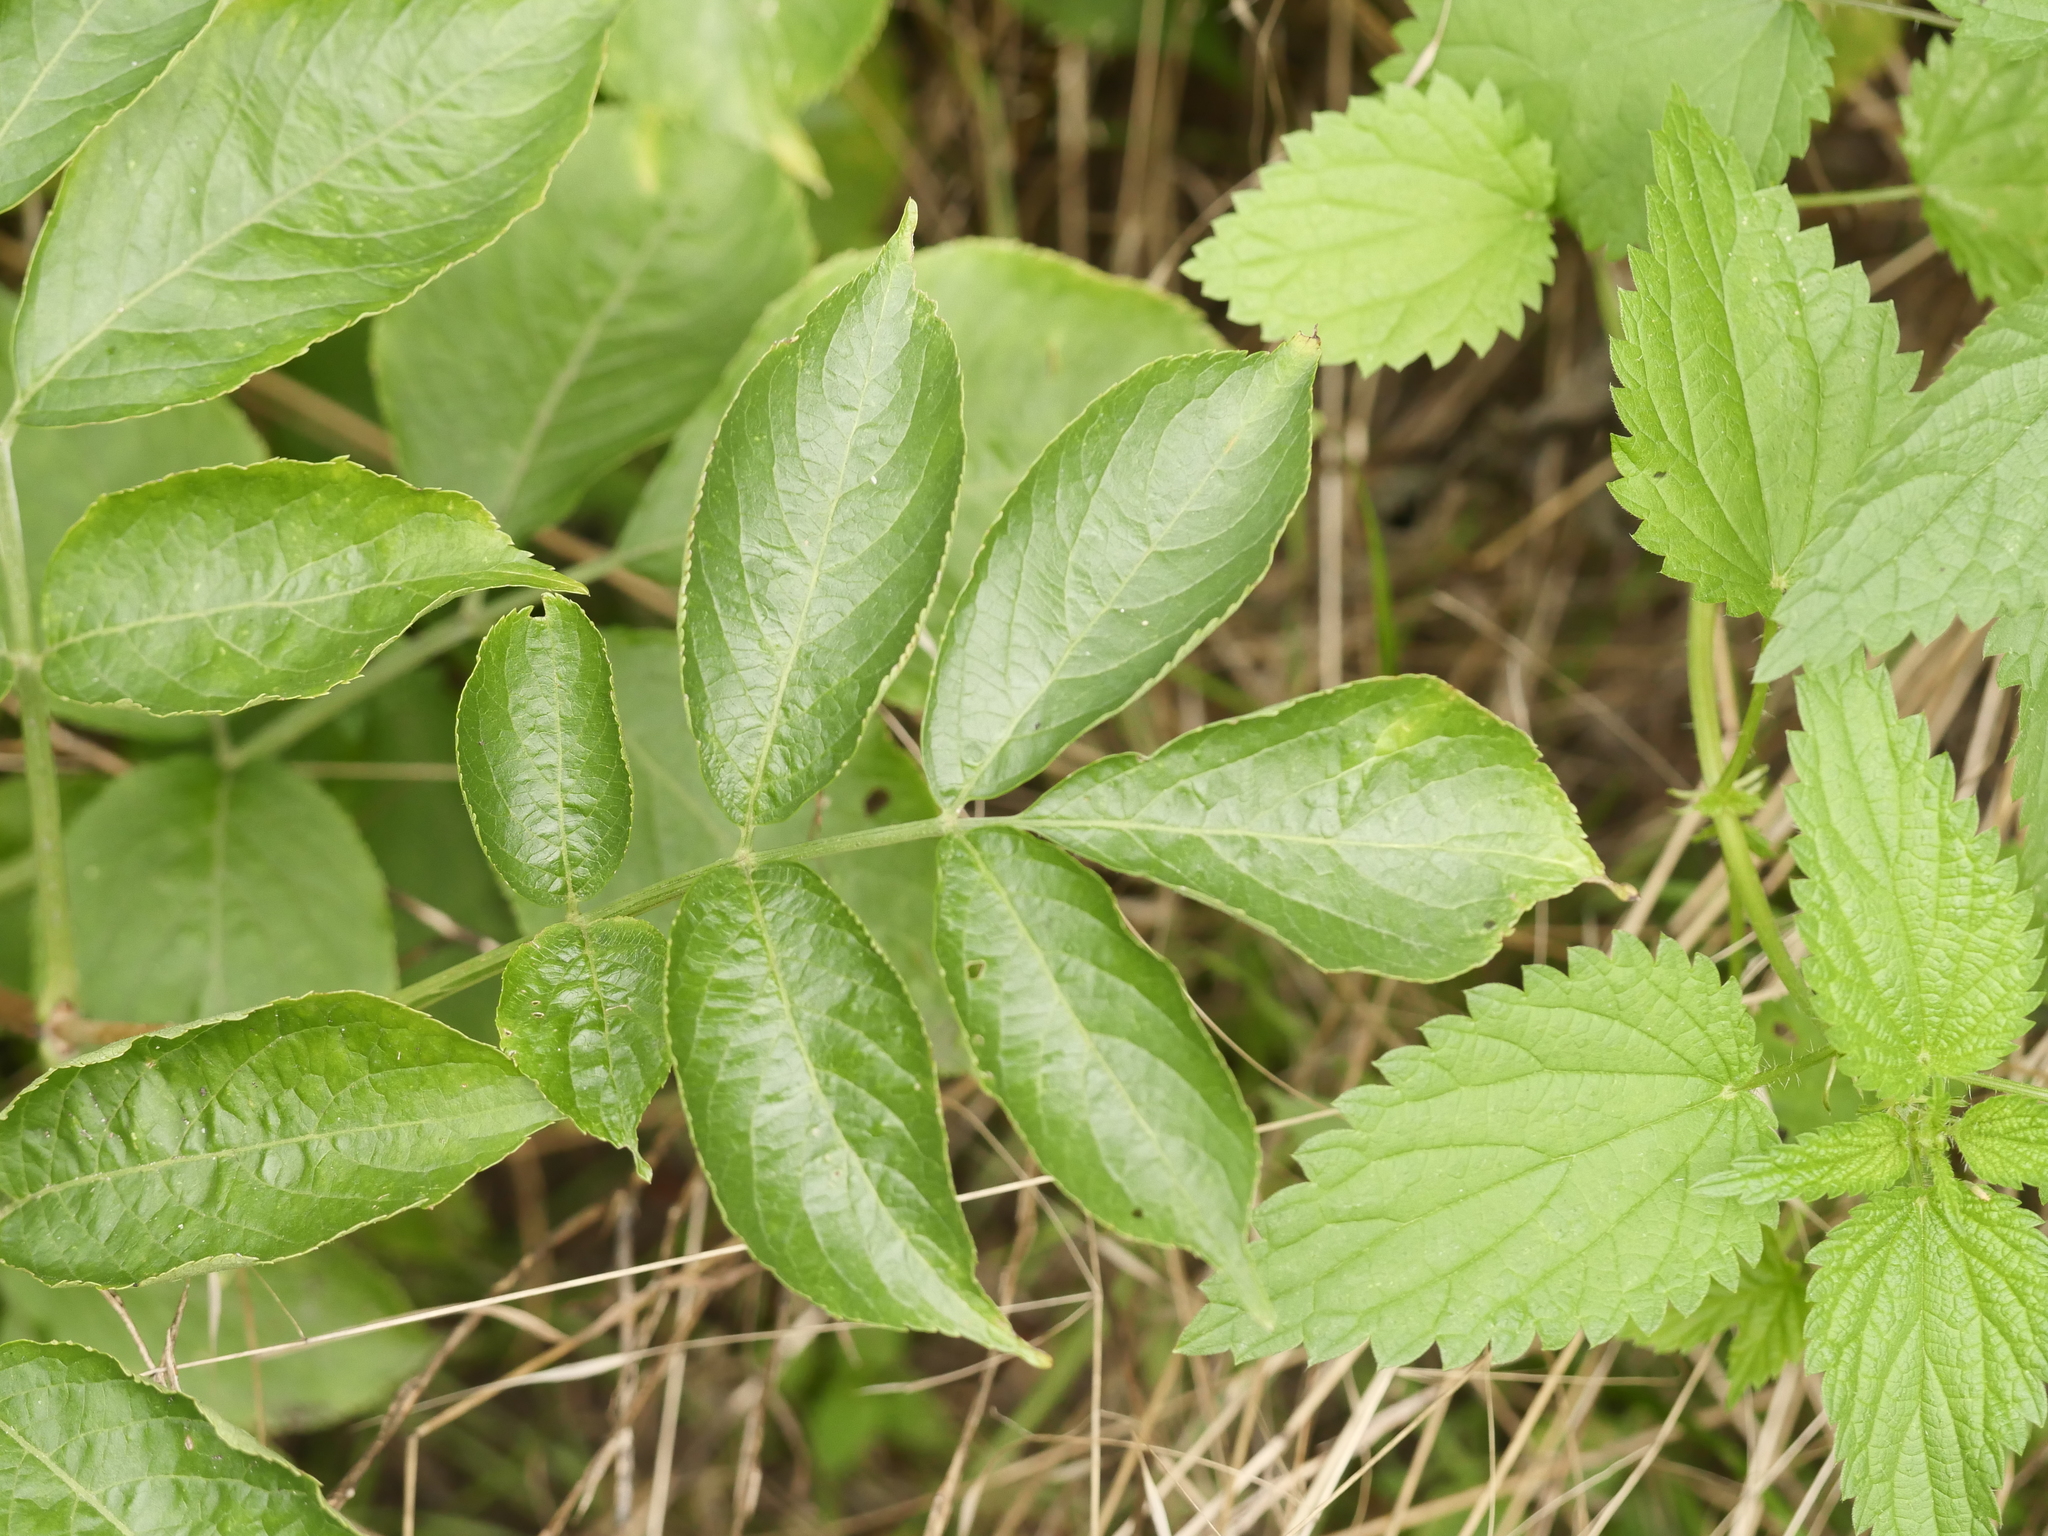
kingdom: Plantae
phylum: Tracheophyta
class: Magnoliopsida
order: Dipsacales
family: Viburnaceae
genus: Sambucus
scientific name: Sambucus nigra
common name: Elder
